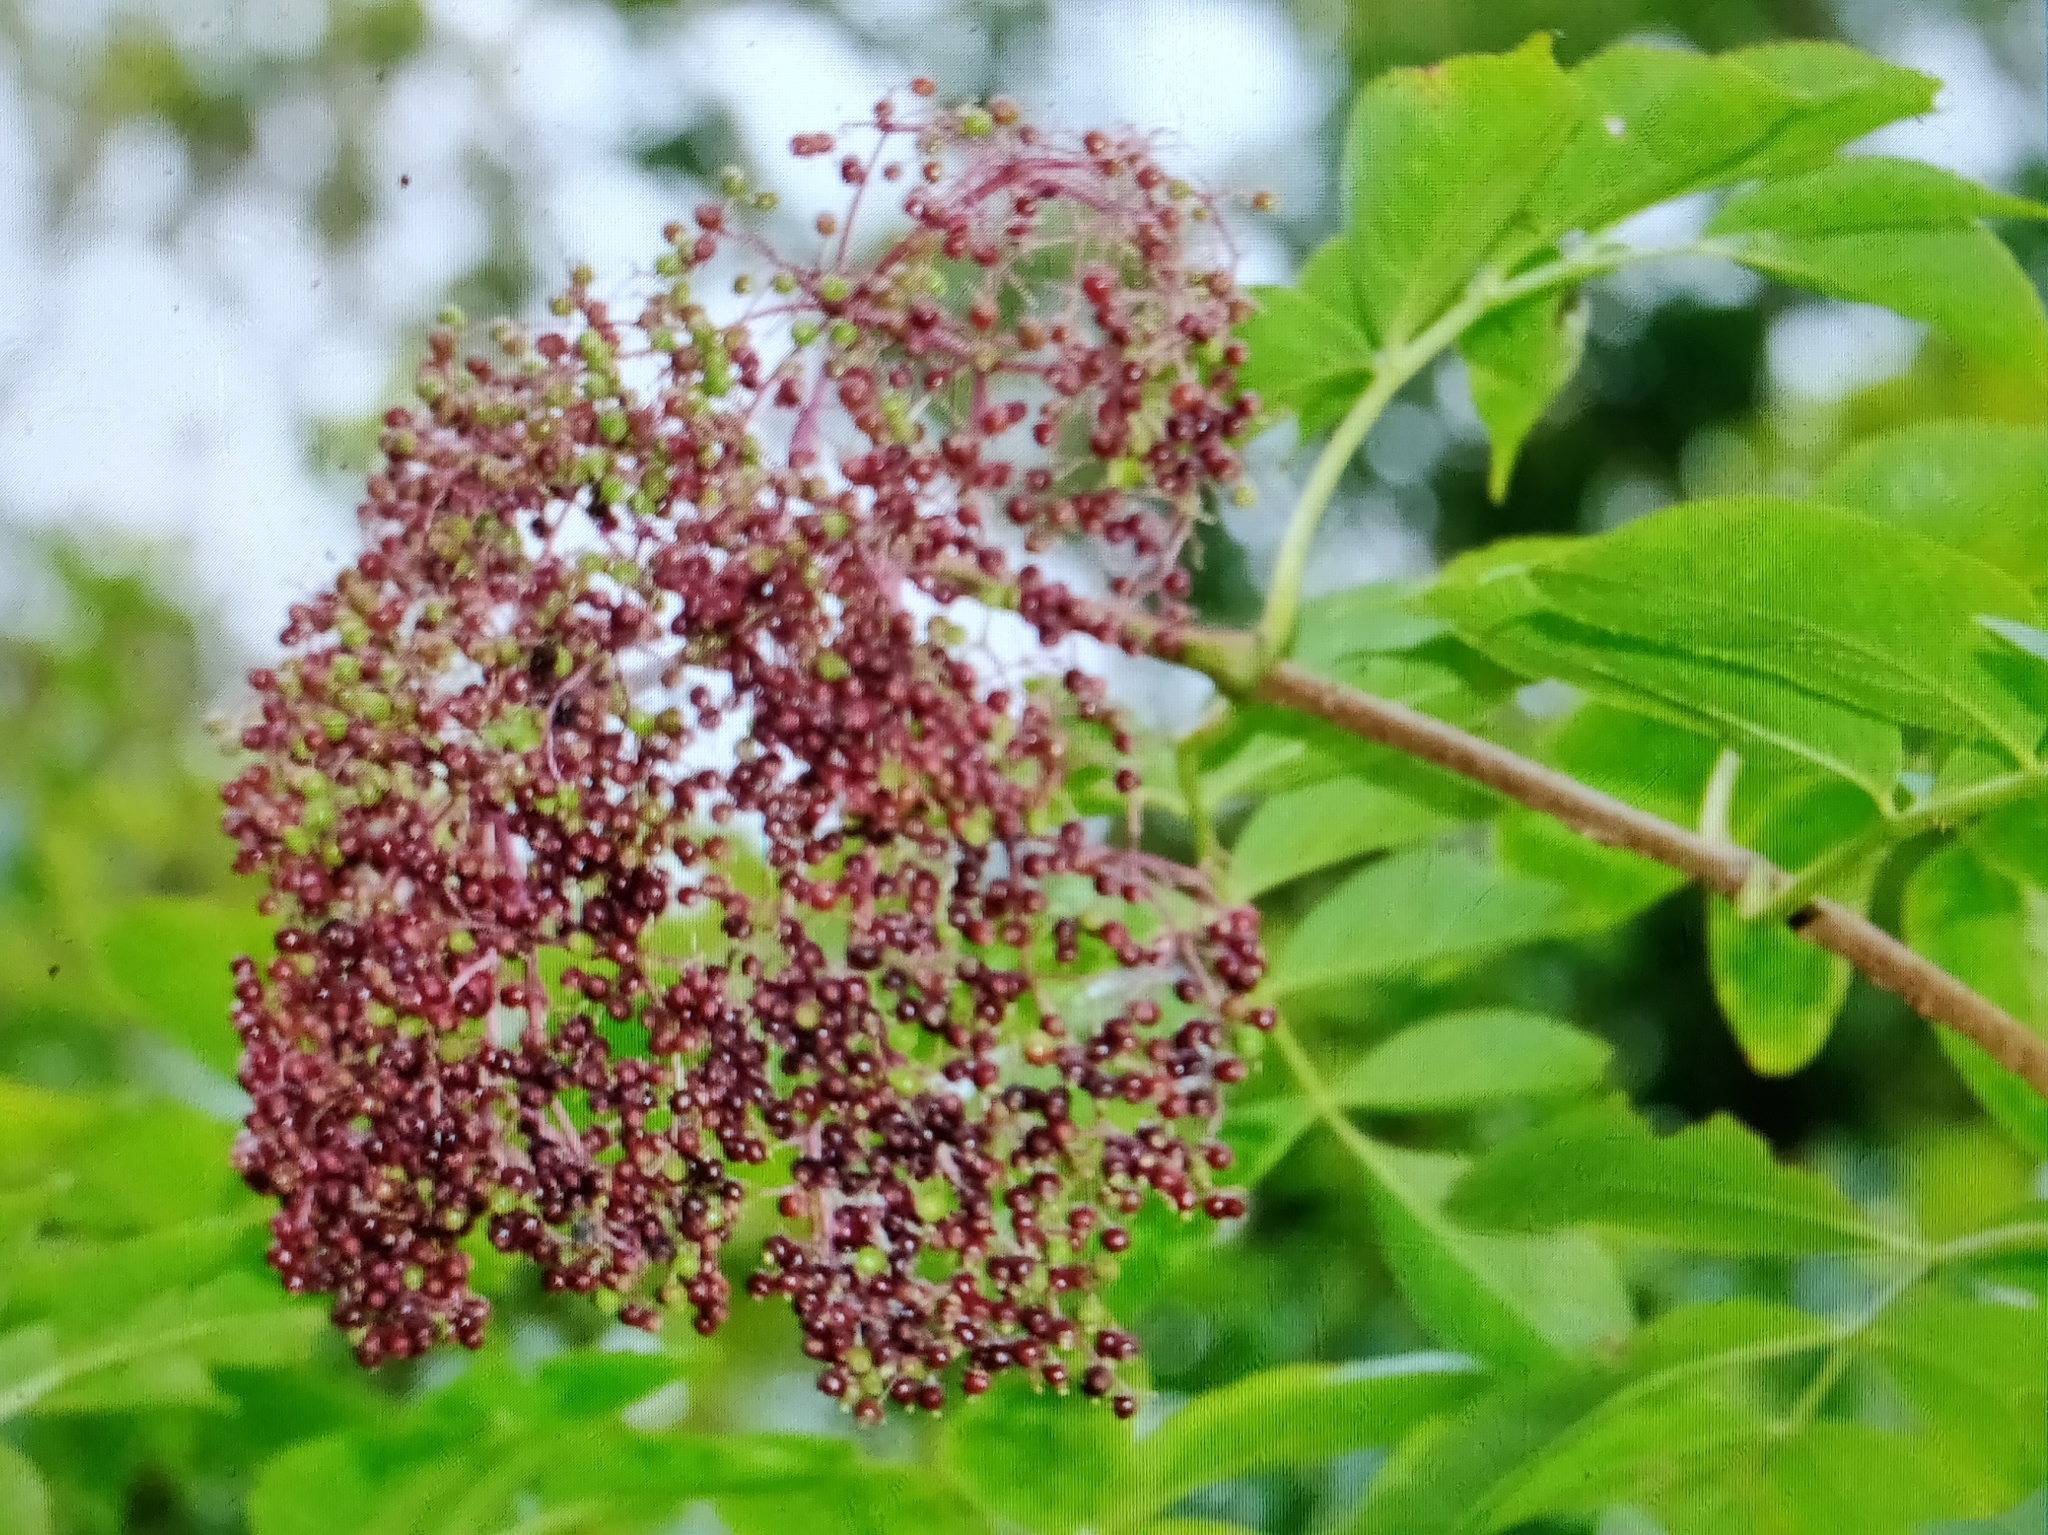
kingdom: Plantae
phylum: Tracheophyta
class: Magnoliopsida
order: Dipsacales
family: Viburnaceae
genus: Sambucus
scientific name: Sambucus canadensis
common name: American elder
